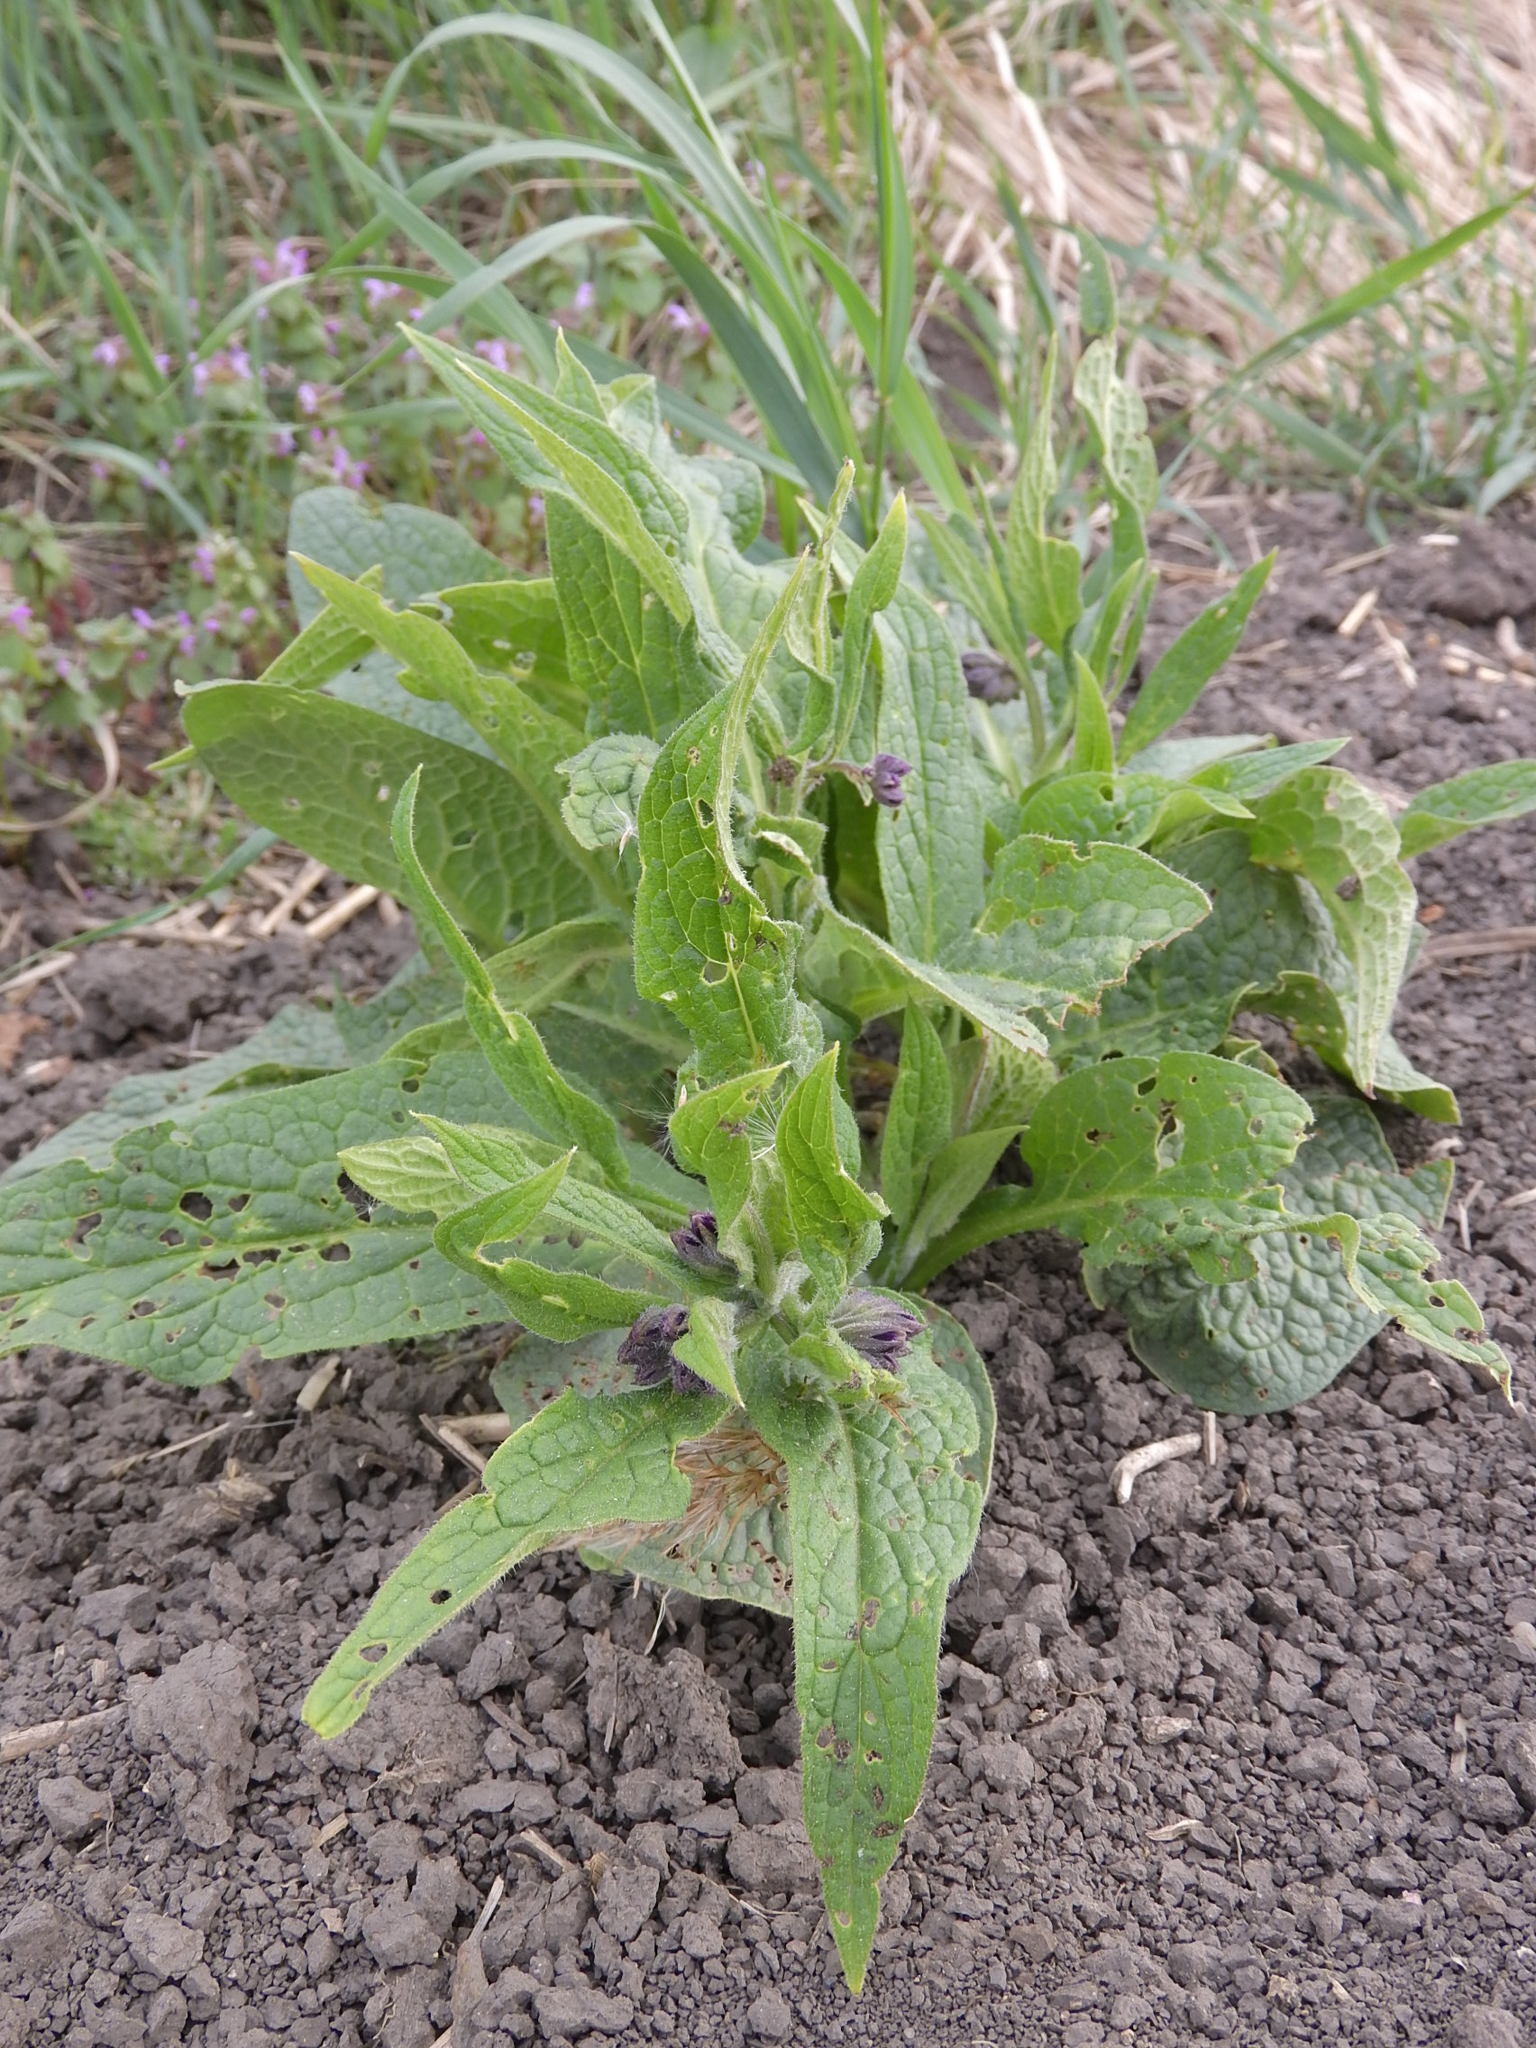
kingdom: Plantae
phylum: Tracheophyta
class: Magnoliopsida
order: Boraginales
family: Boraginaceae
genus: Symphytum
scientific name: Symphytum officinale
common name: Common comfrey
